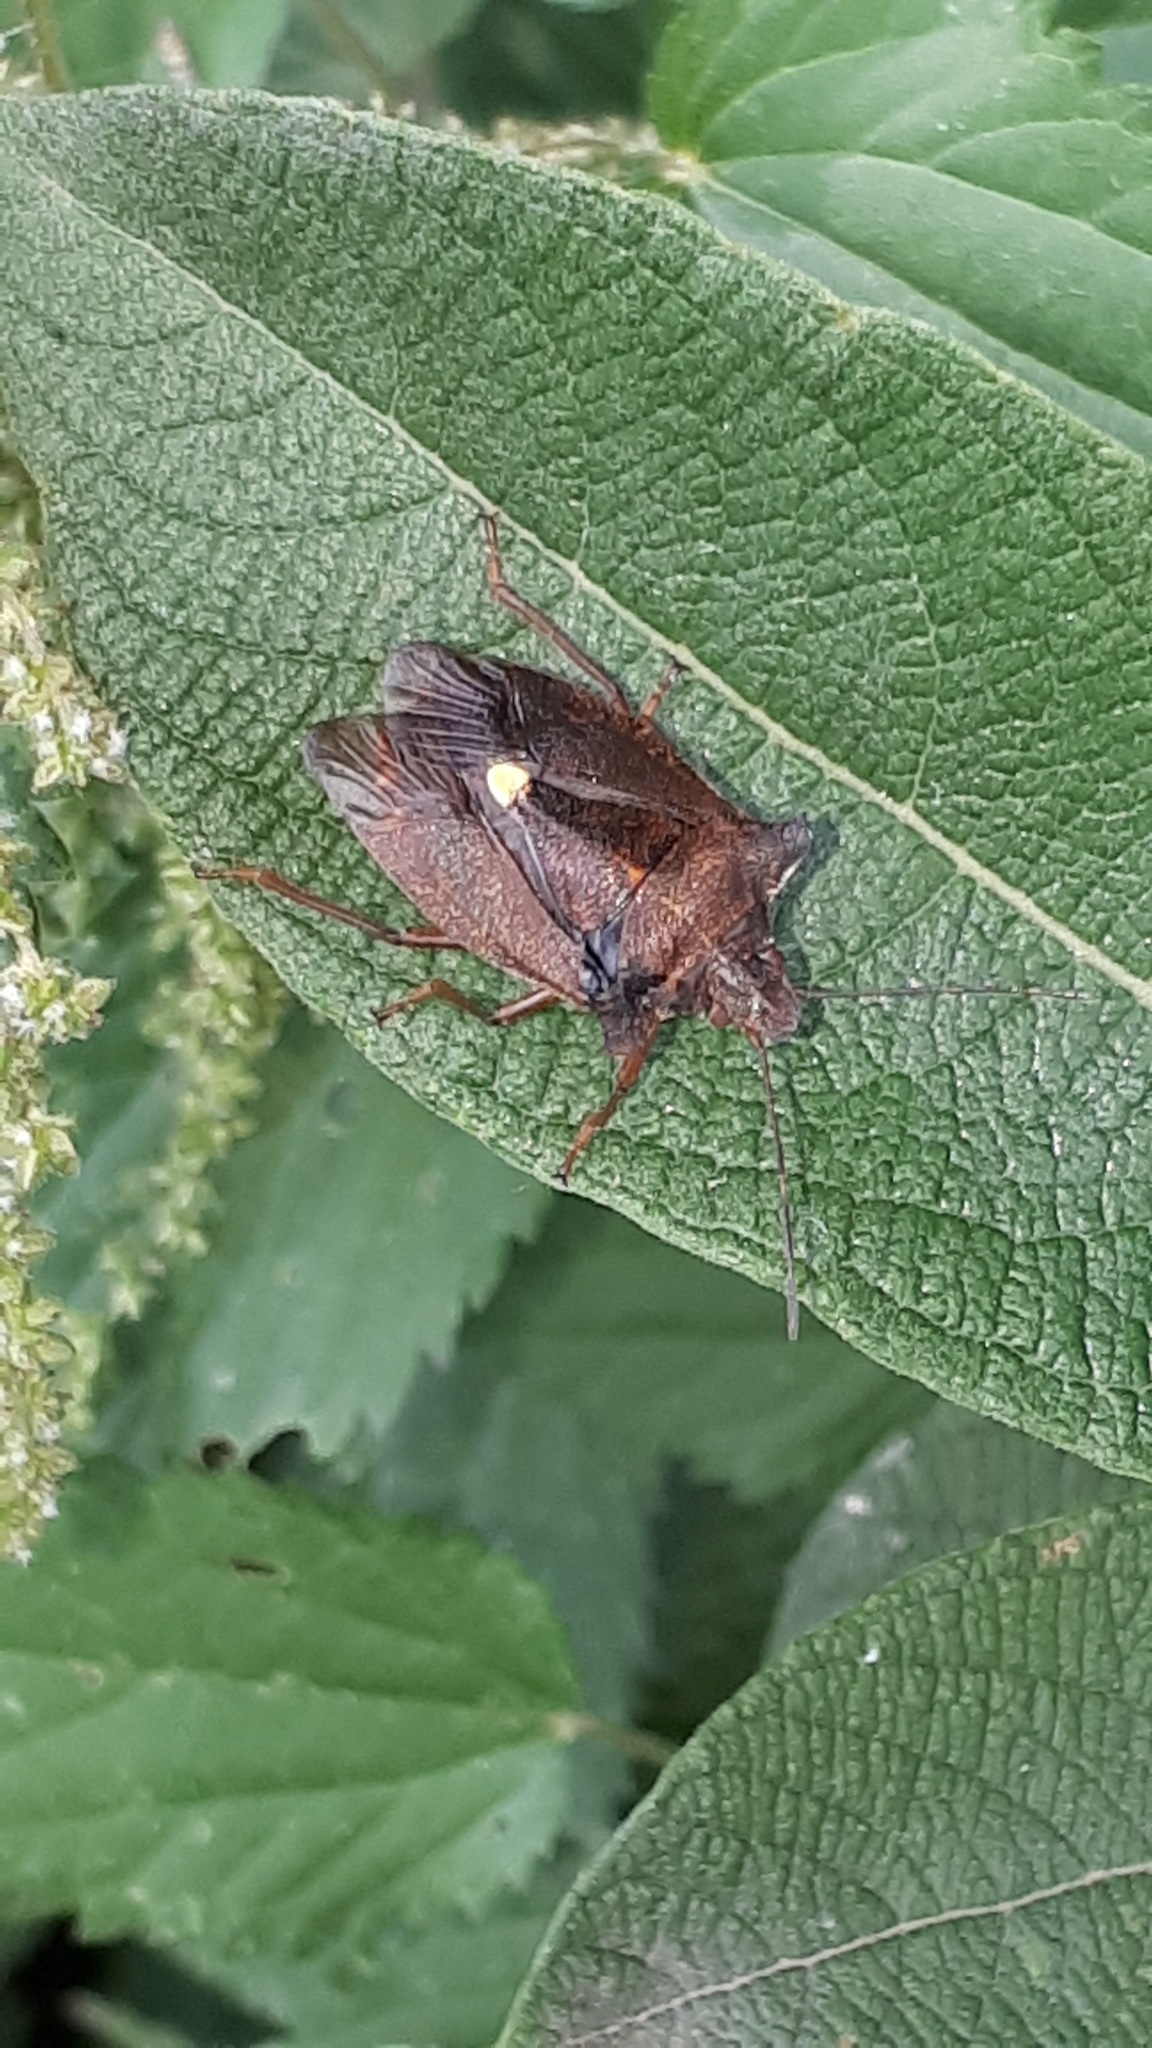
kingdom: Animalia
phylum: Arthropoda
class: Insecta
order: Hemiptera
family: Pentatomidae
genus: Pentatoma
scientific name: Pentatoma rufipes
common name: Forest bug
